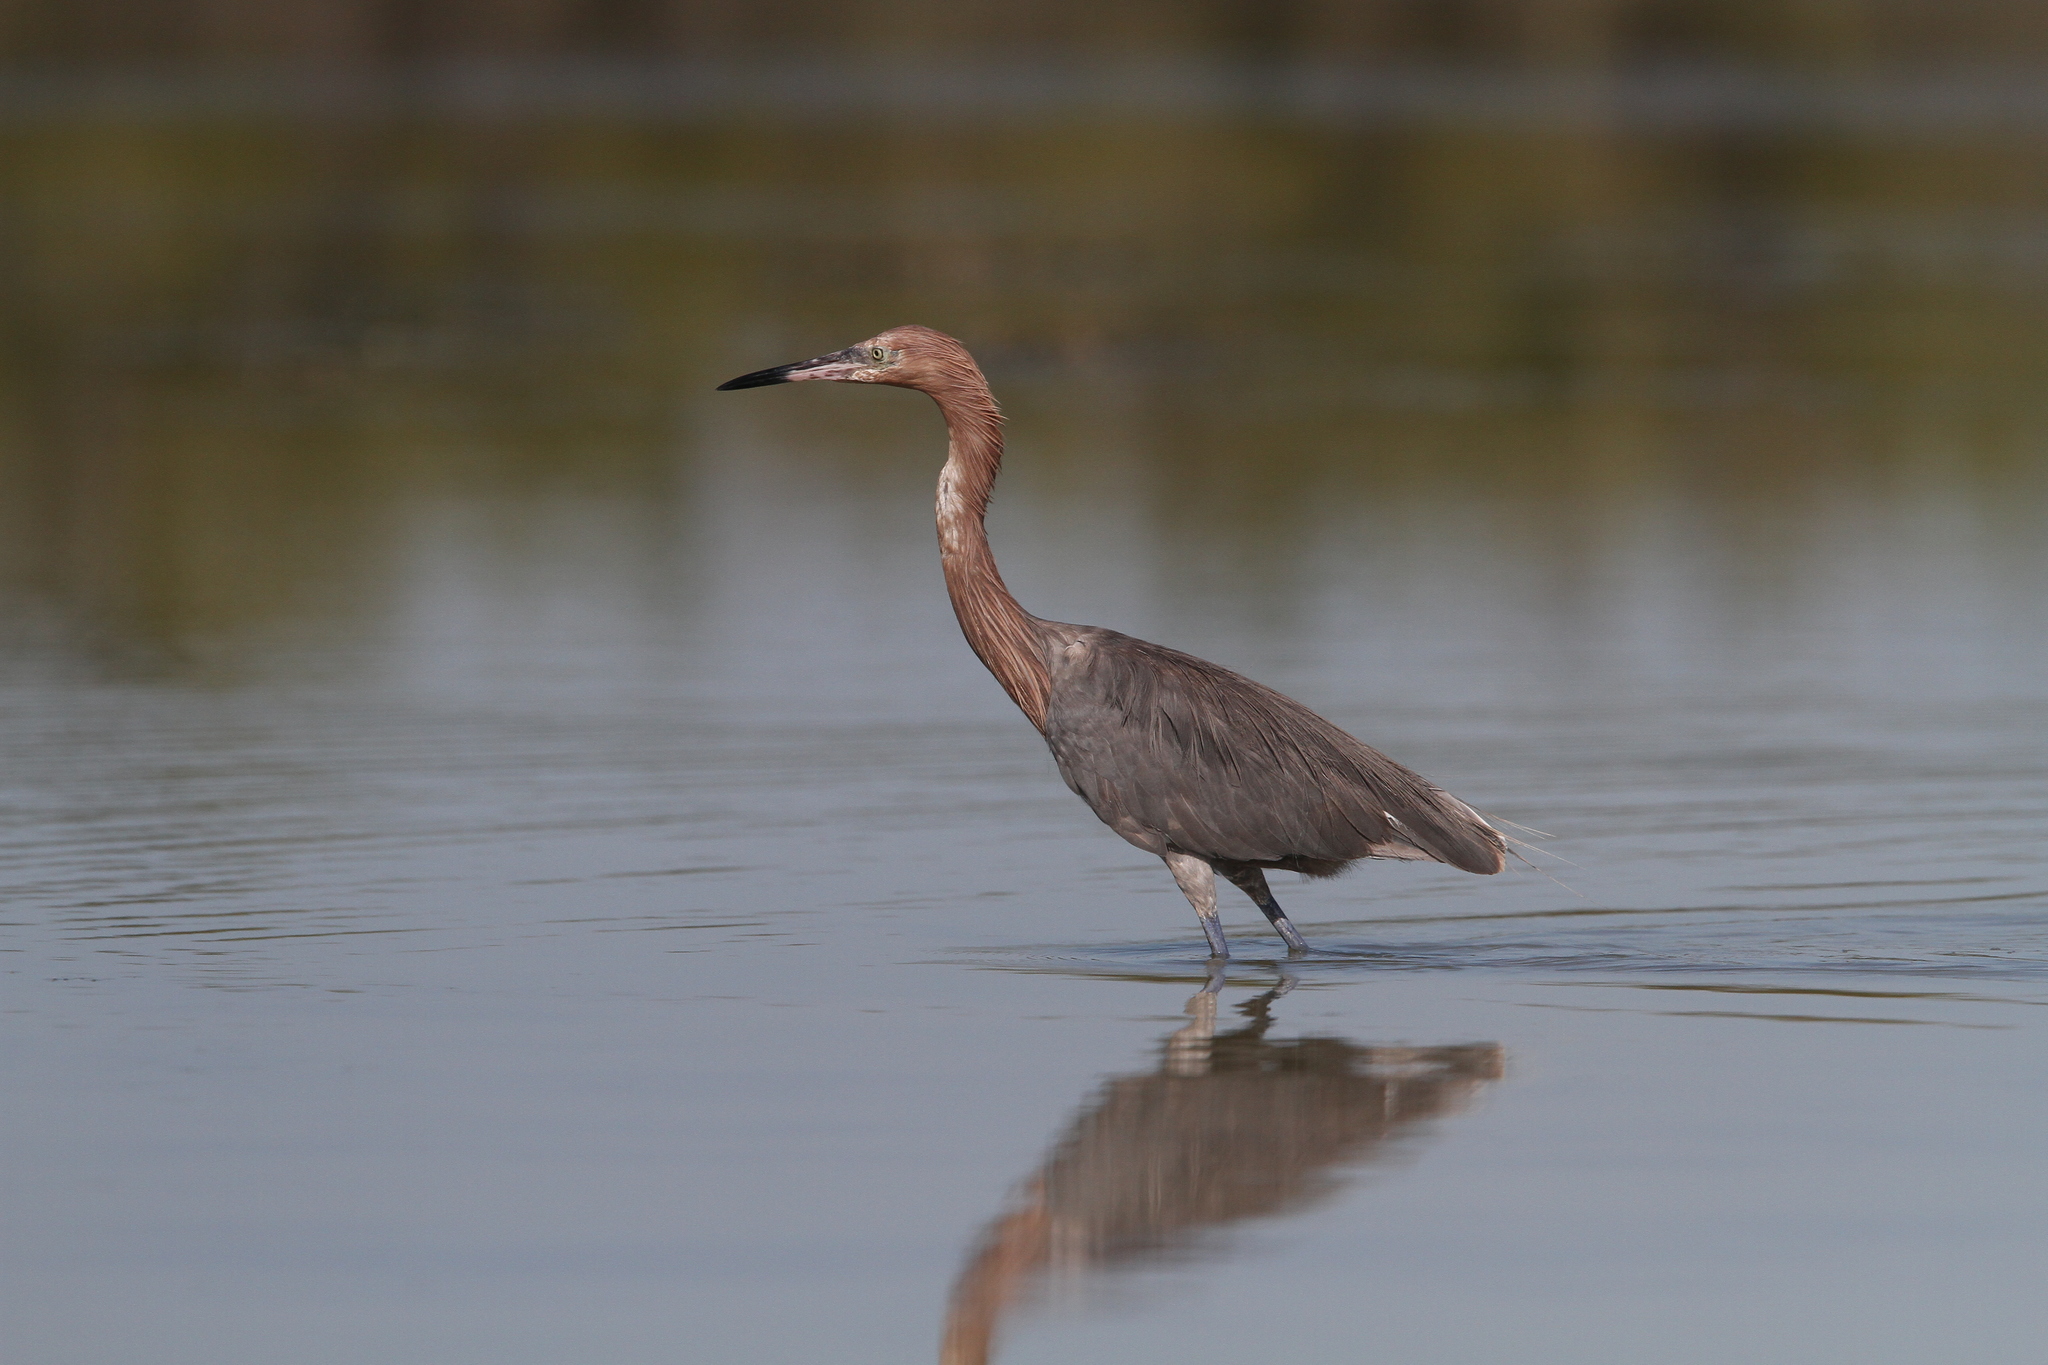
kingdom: Animalia
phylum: Chordata
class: Aves
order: Pelecaniformes
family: Ardeidae
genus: Egretta
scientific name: Egretta rufescens
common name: Reddish egret
